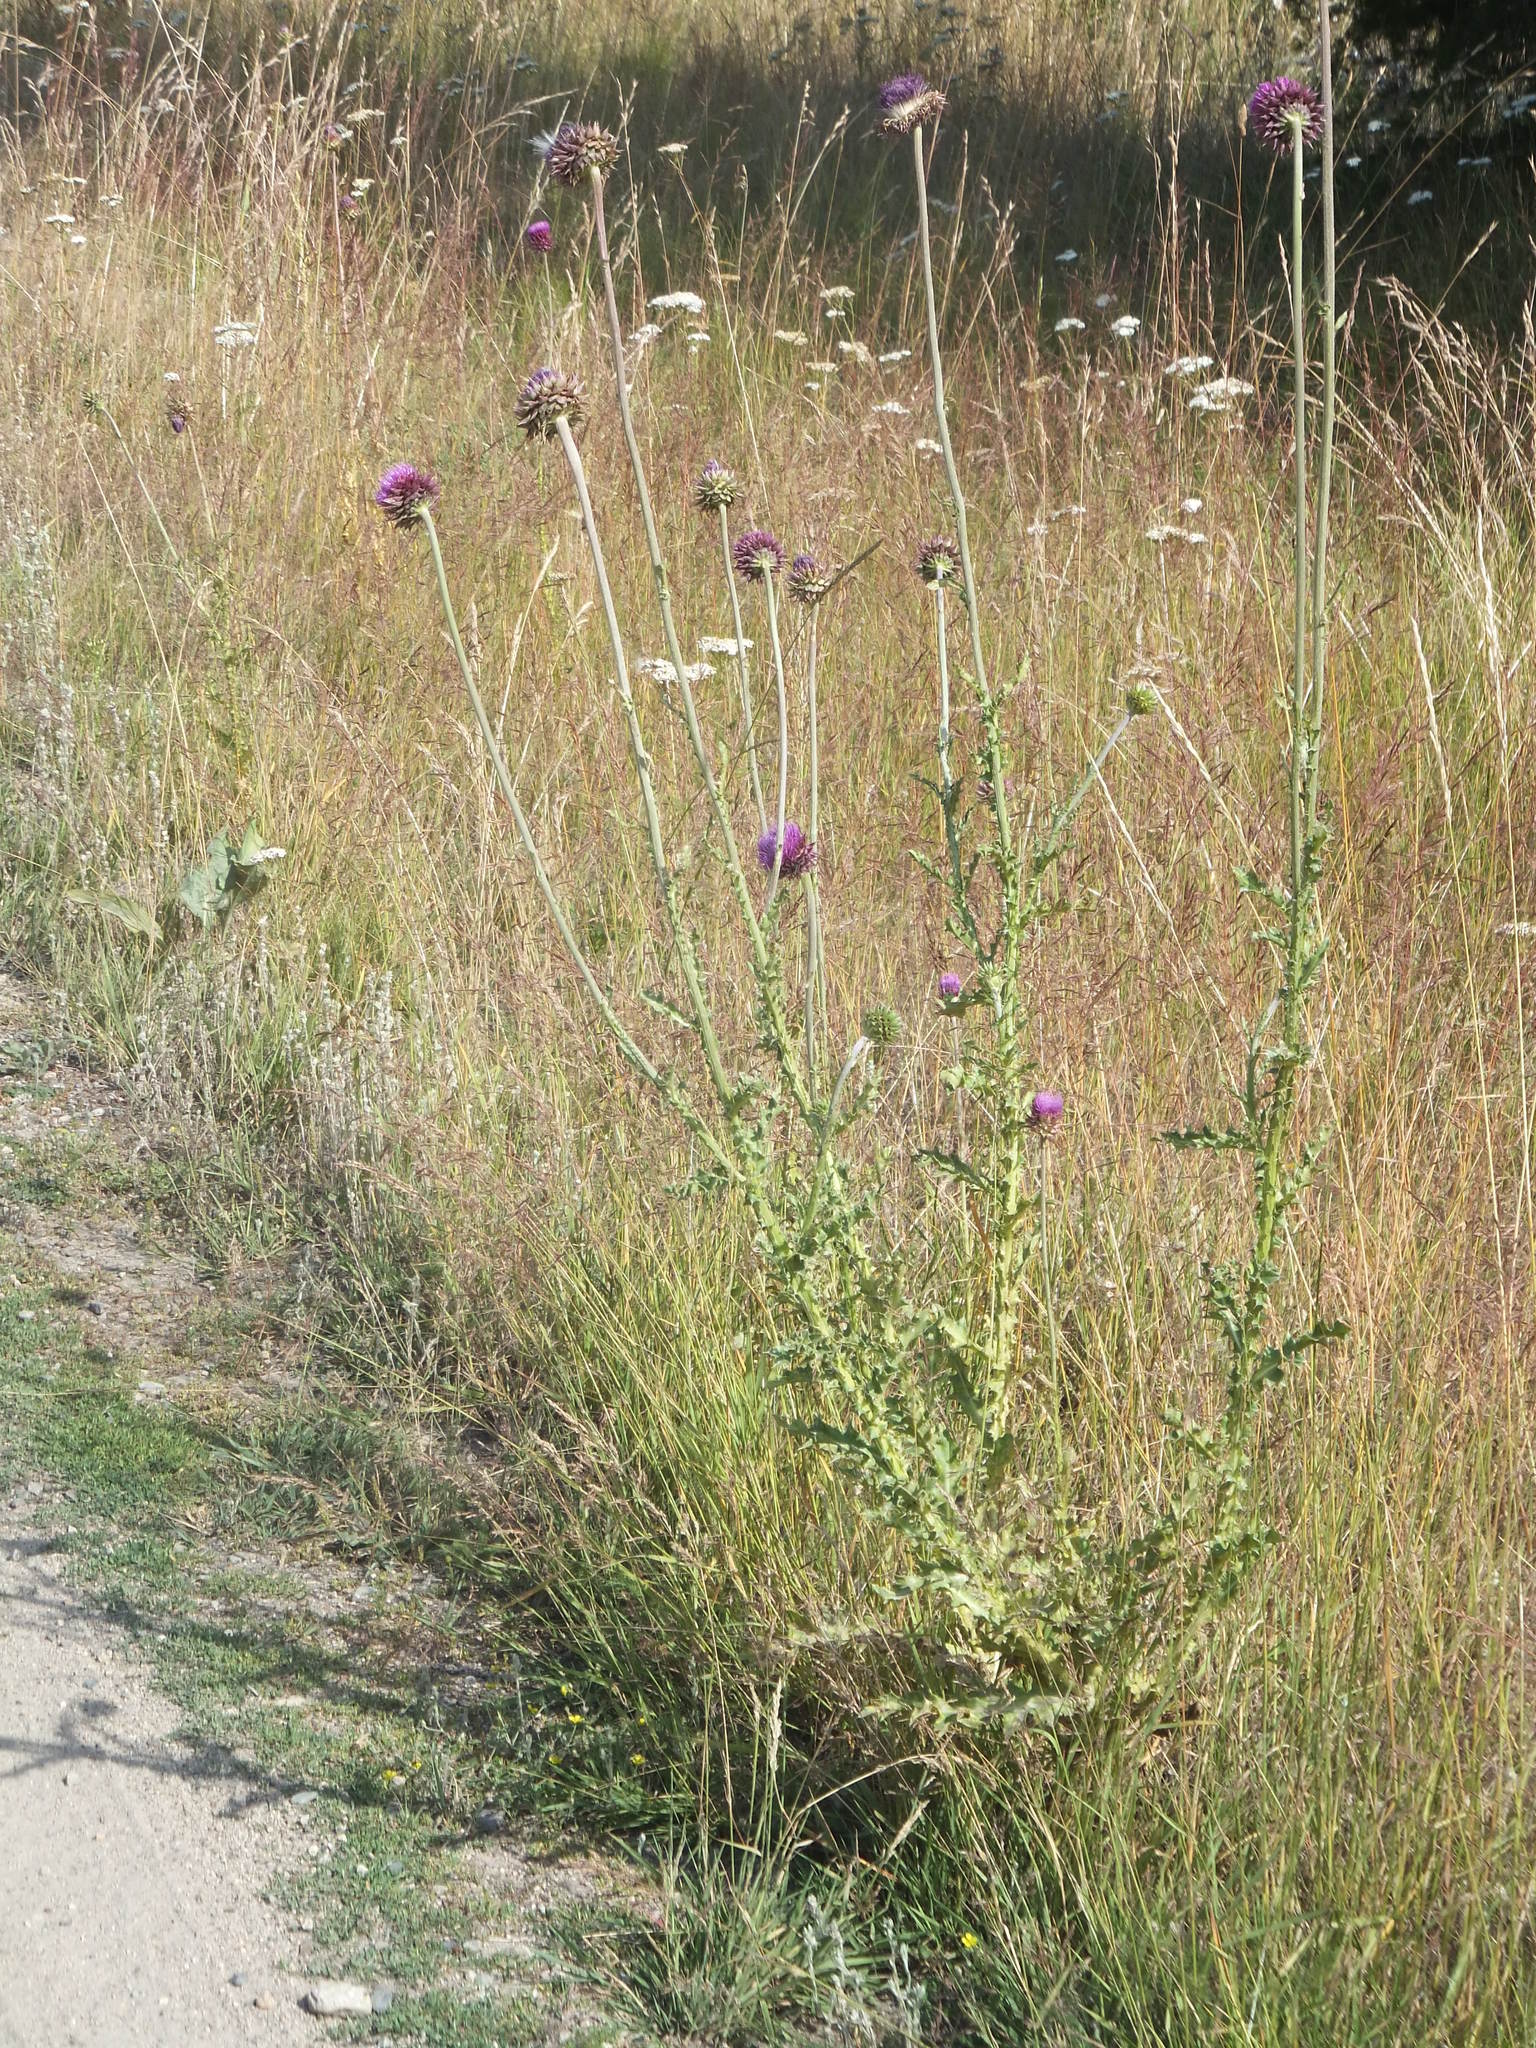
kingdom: Plantae
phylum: Tracheophyta
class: Magnoliopsida
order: Asterales
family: Asteraceae
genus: Carduus
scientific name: Carduus nutans
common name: Musk thistle
